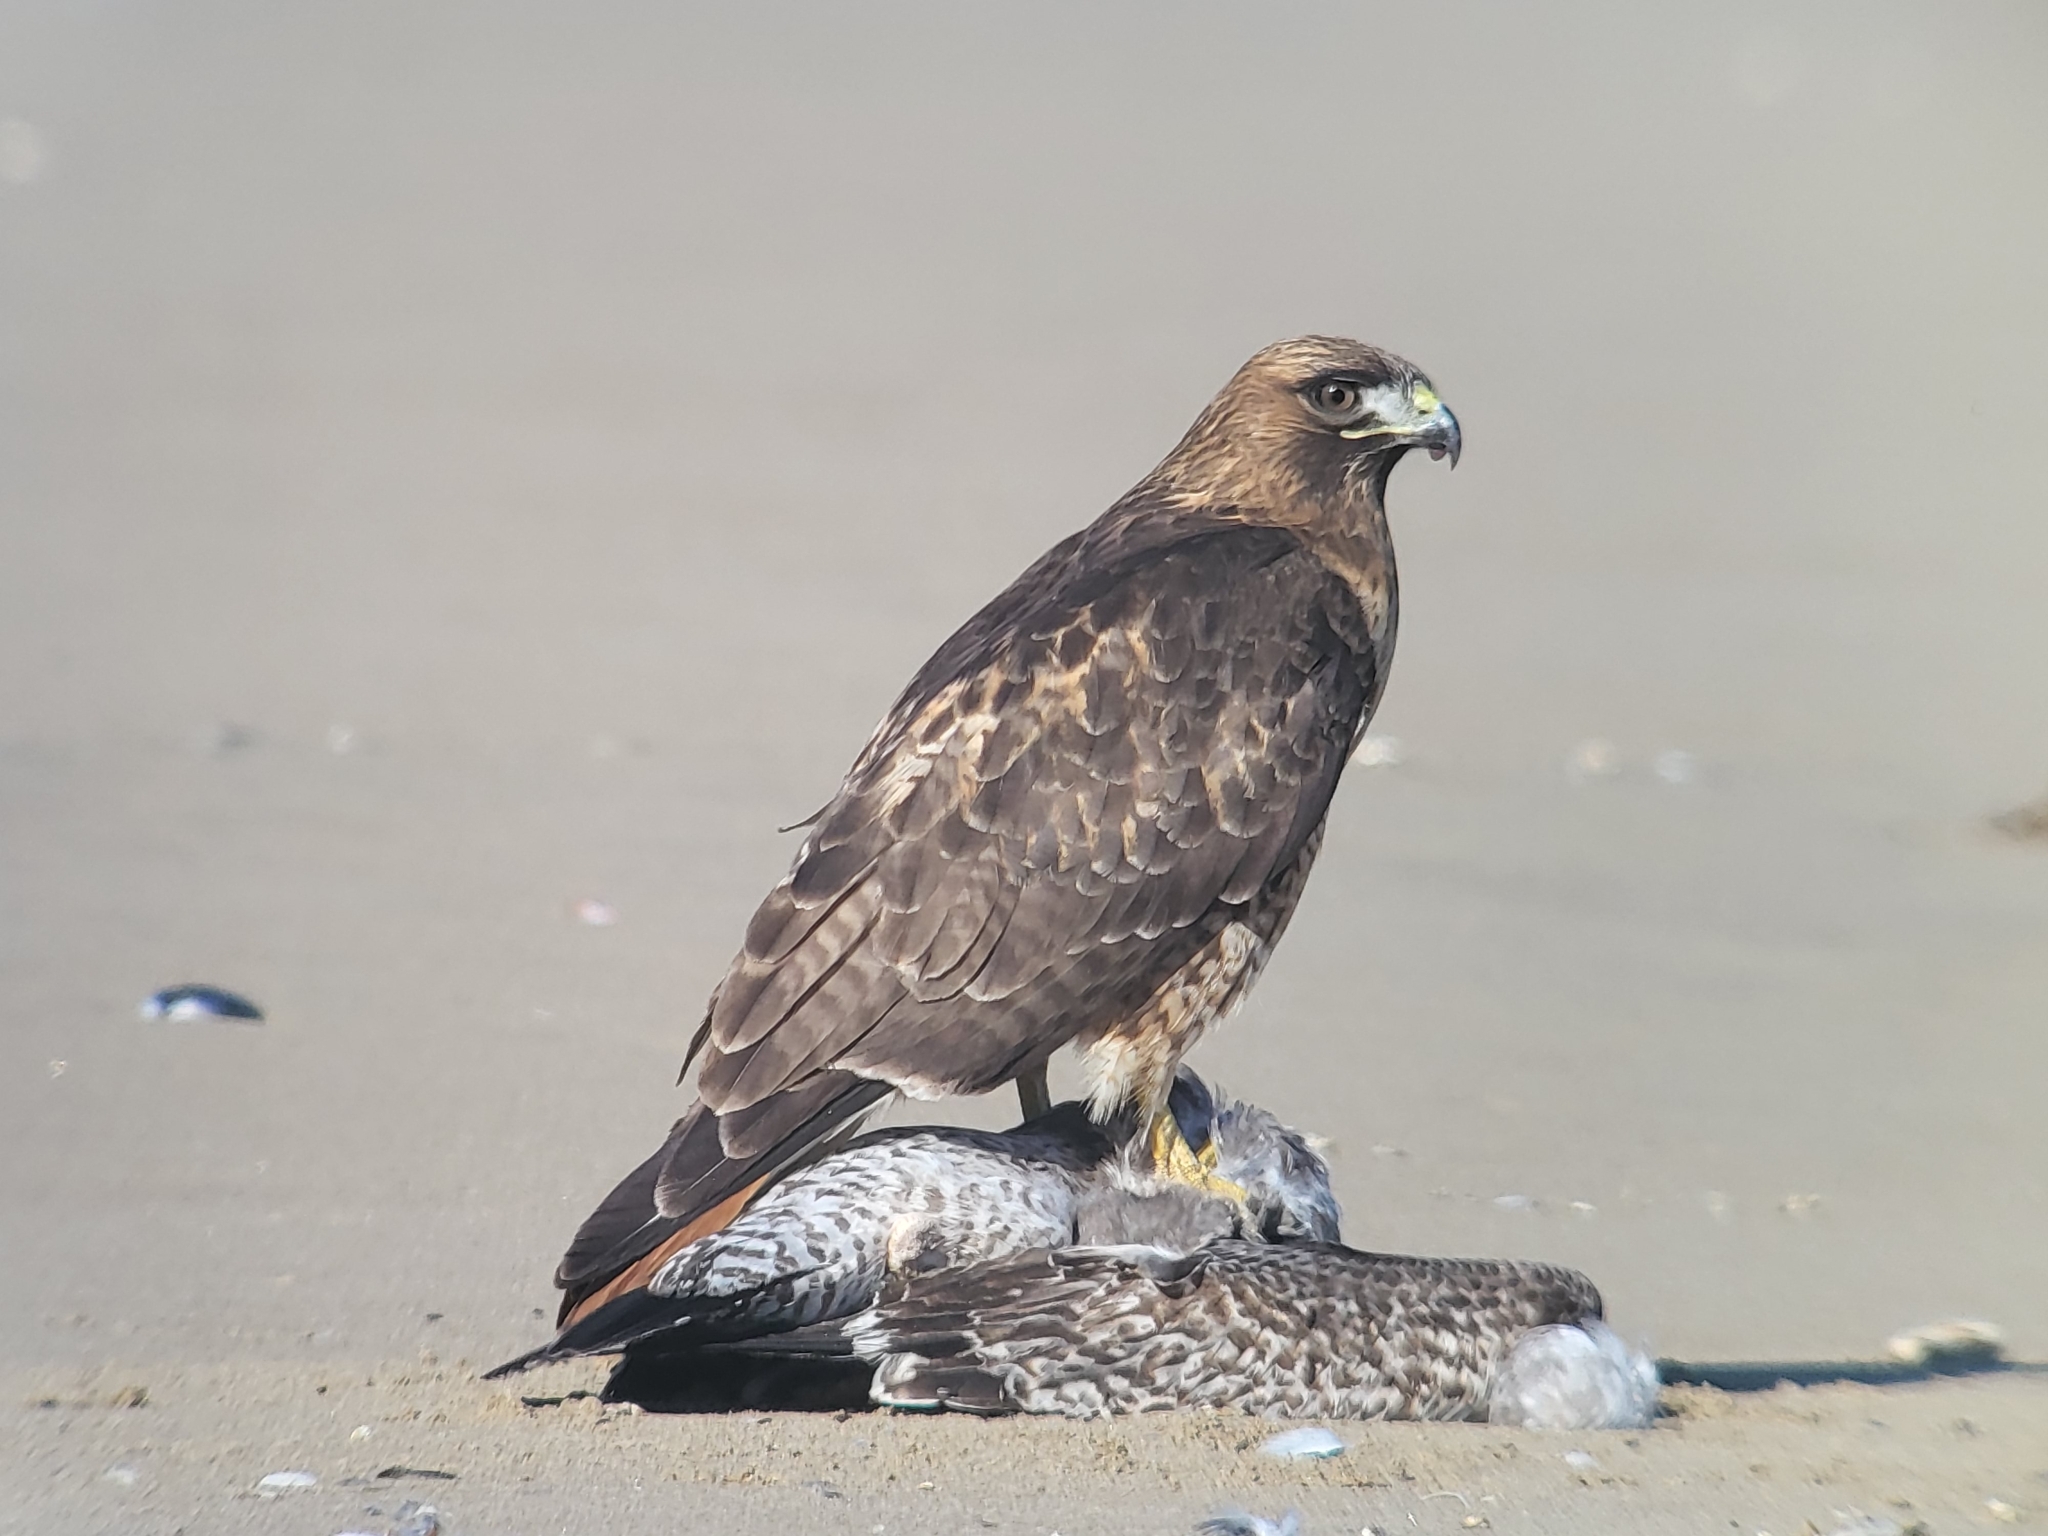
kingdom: Animalia
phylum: Chordata
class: Aves
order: Charadriiformes
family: Laridae
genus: Larus
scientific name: Larus occidentalis
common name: Western gull
